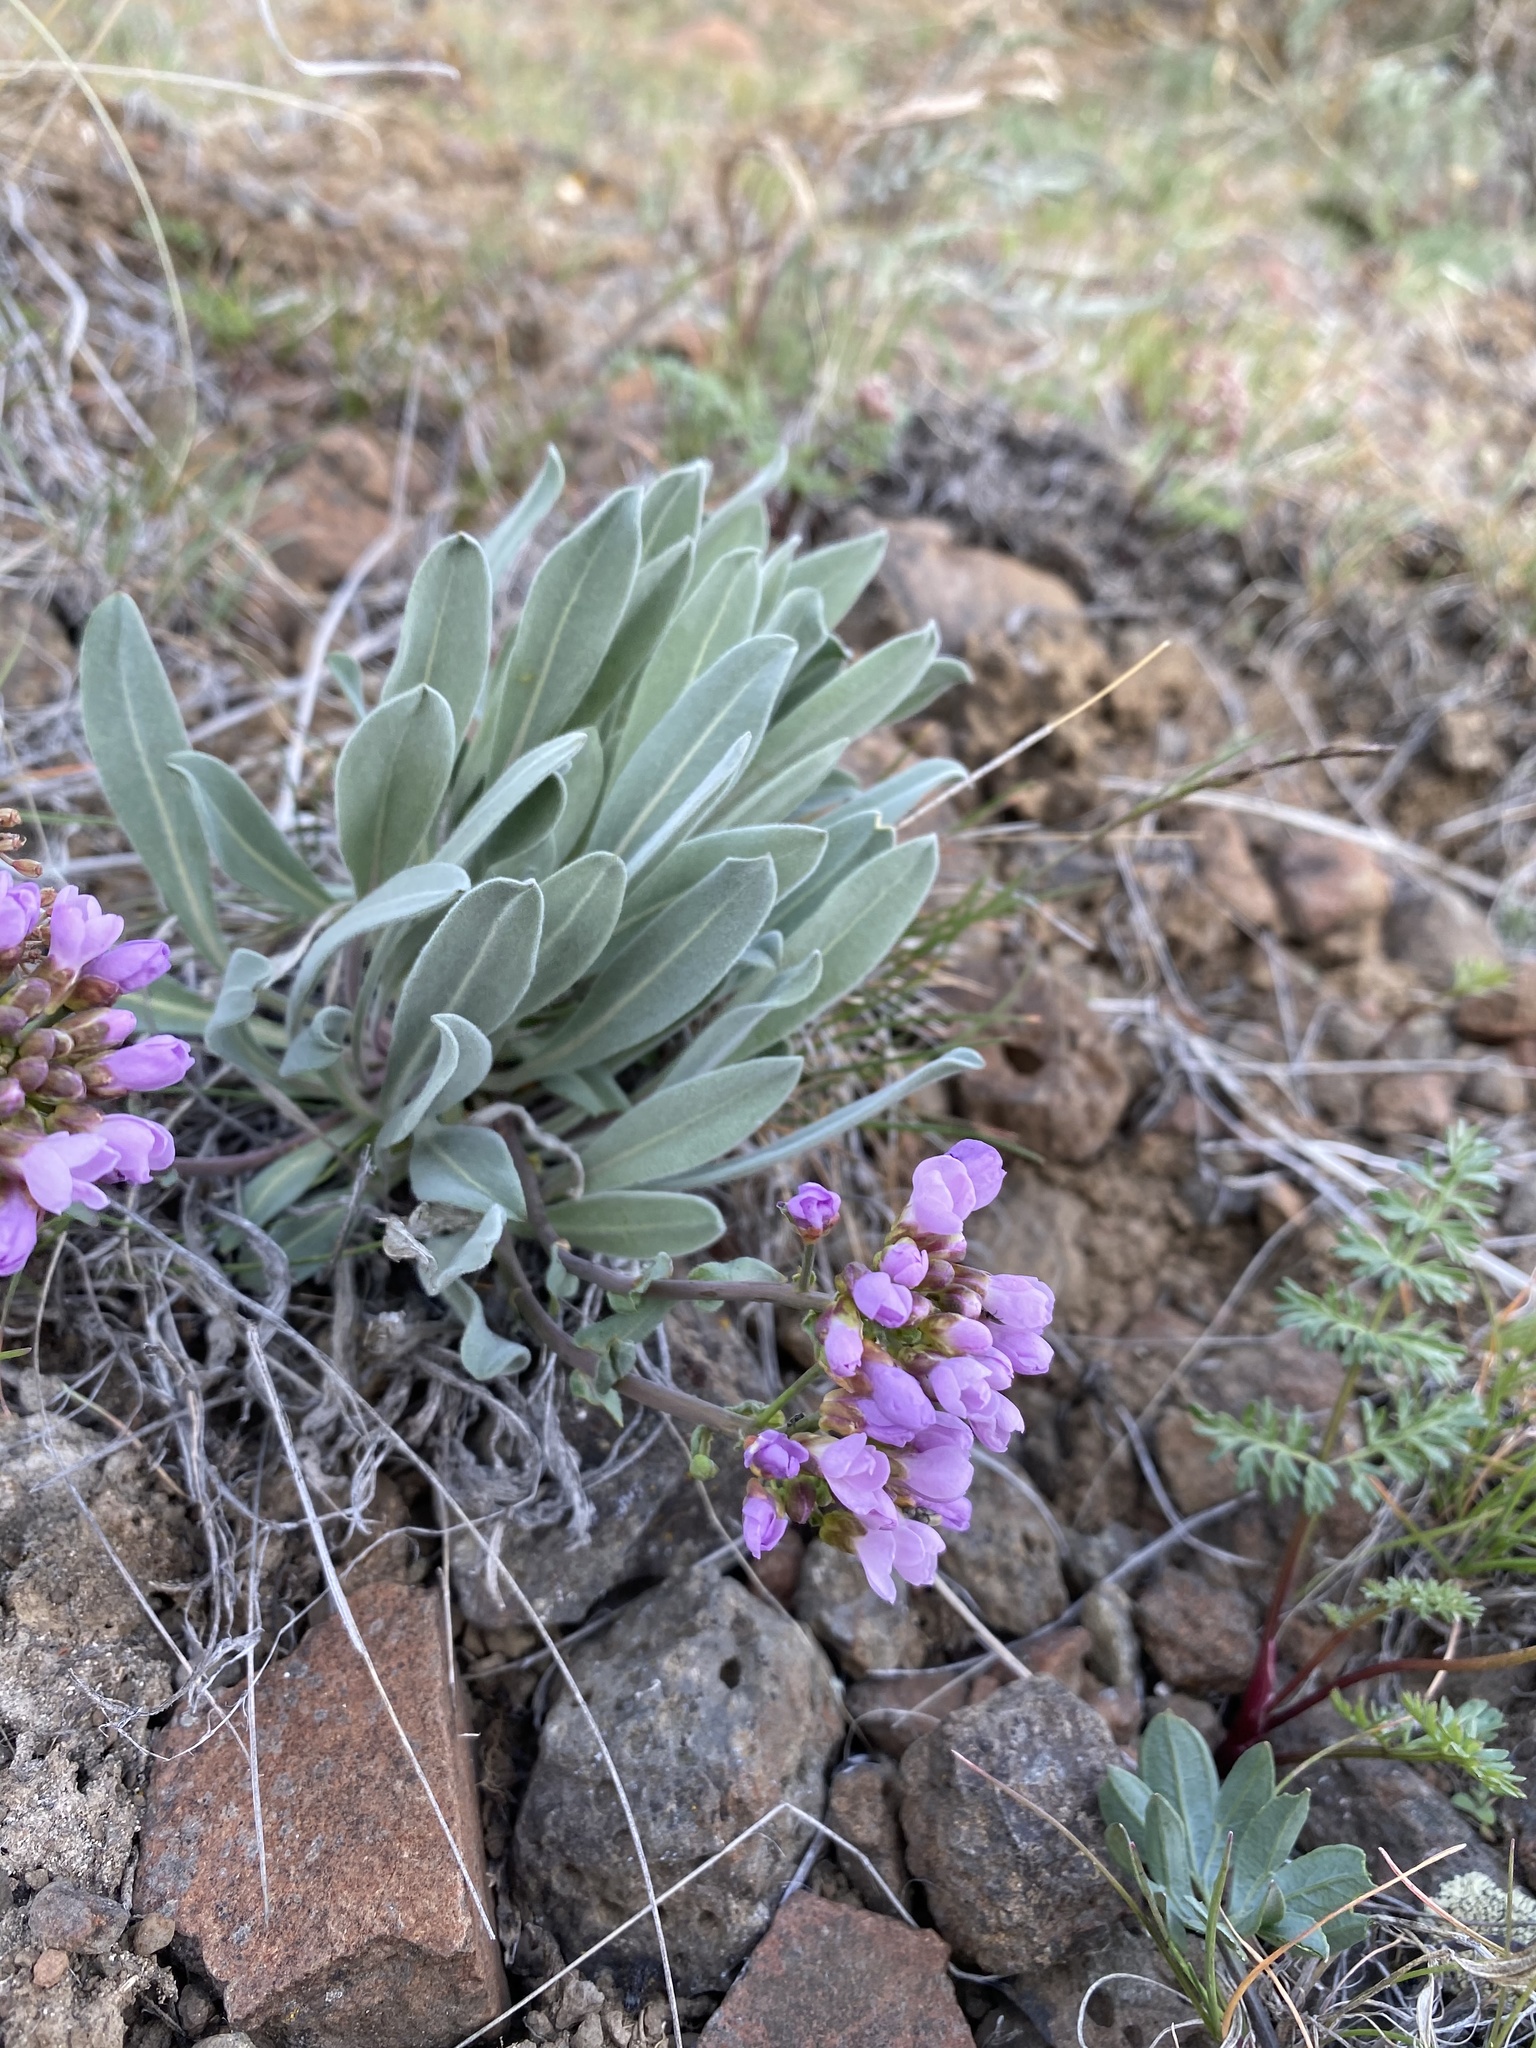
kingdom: Plantae
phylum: Tracheophyta
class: Magnoliopsida
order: Brassicales
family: Brassicaceae
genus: Phoenicaulis
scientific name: Phoenicaulis cheiranthoides
